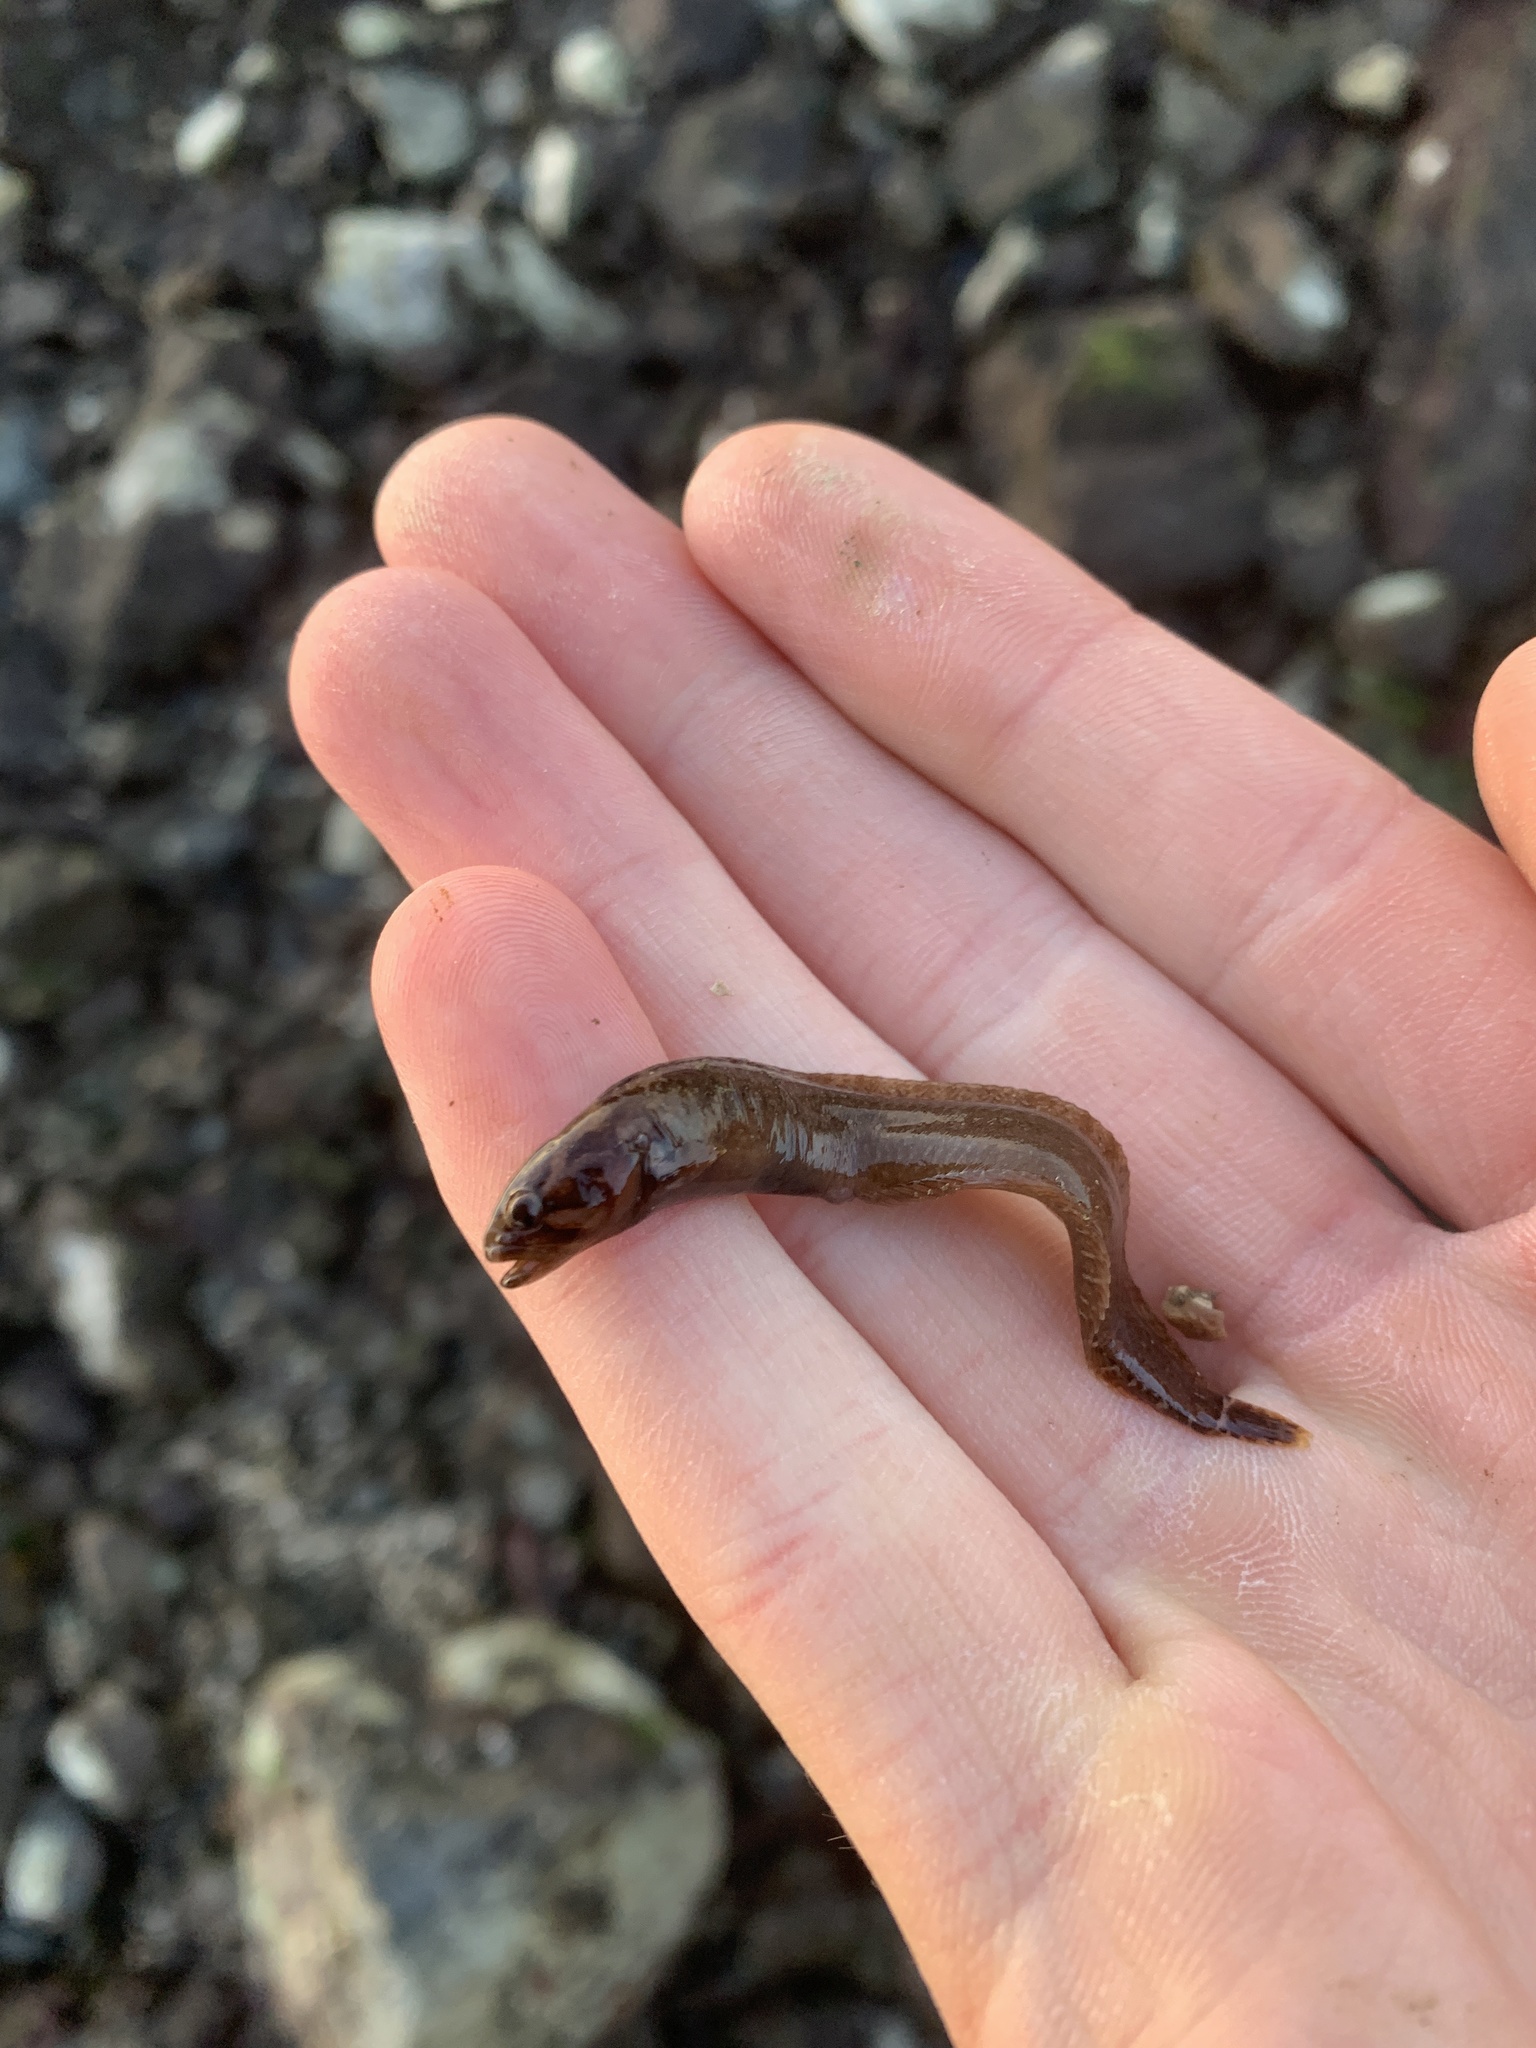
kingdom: Animalia
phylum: Chordata
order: Perciformes
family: Stichaeidae
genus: Anoplarchus
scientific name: Anoplarchus purpurescens
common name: High cockscomb
